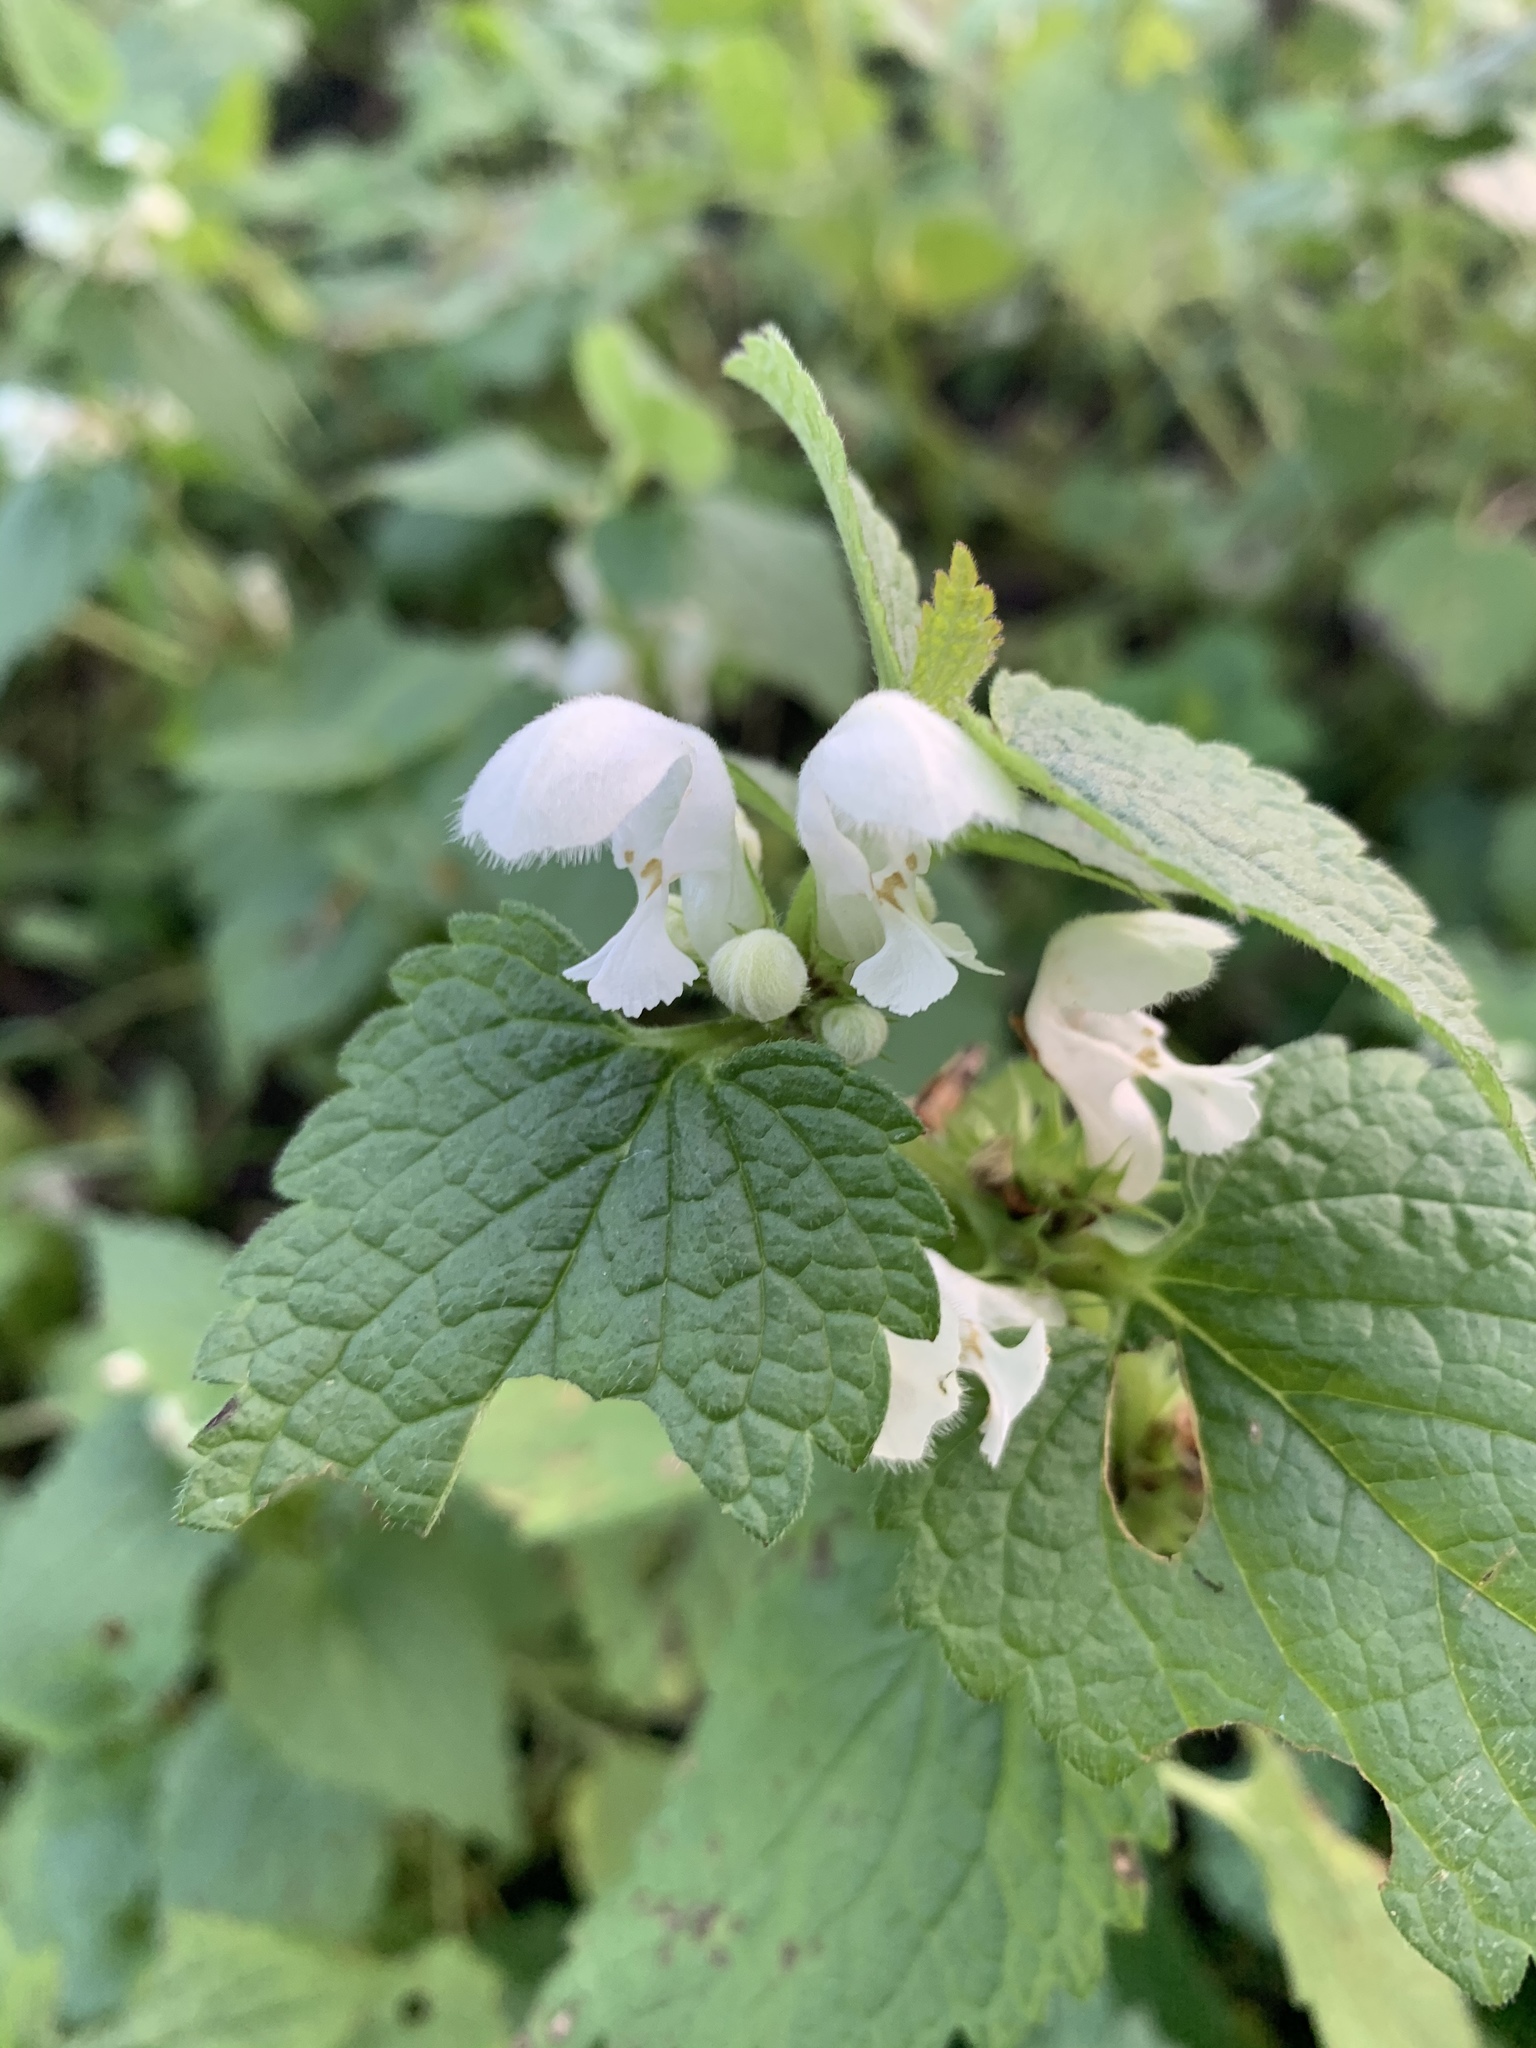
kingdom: Plantae
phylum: Tracheophyta
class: Magnoliopsida
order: Lamiales
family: Lamiaceae
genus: Lamium
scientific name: Lamium album
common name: White dead-nettle
